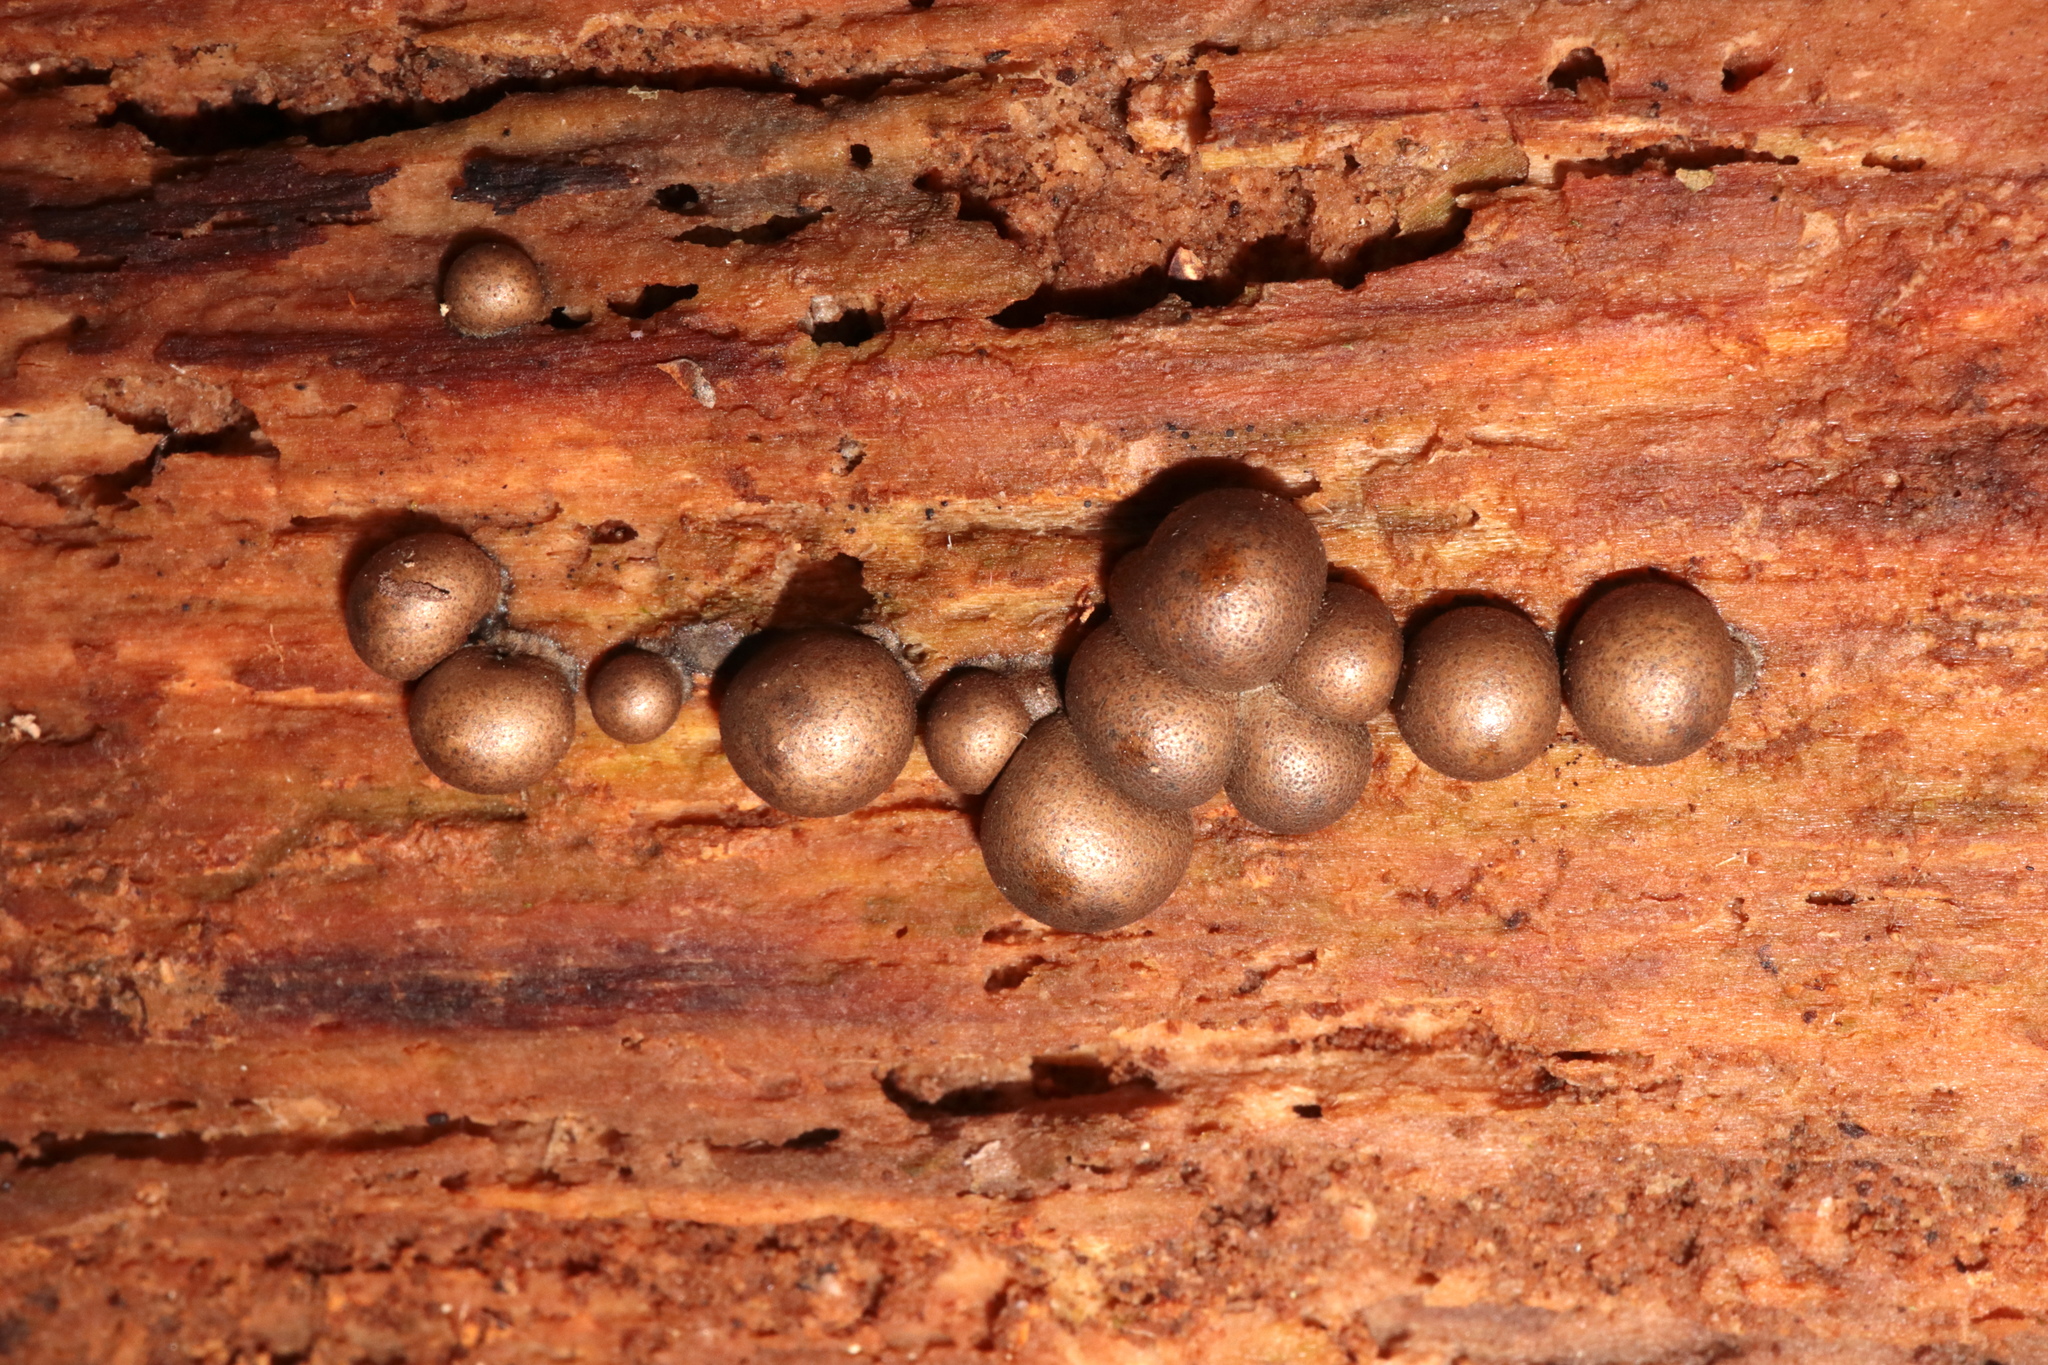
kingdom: Protozoa
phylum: Mycetozoa
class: Myxomycetes
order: Cribrariales
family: Tubiferaceae
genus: Lycogala
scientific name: Lycogala epidendrum
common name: Wolf's milk
